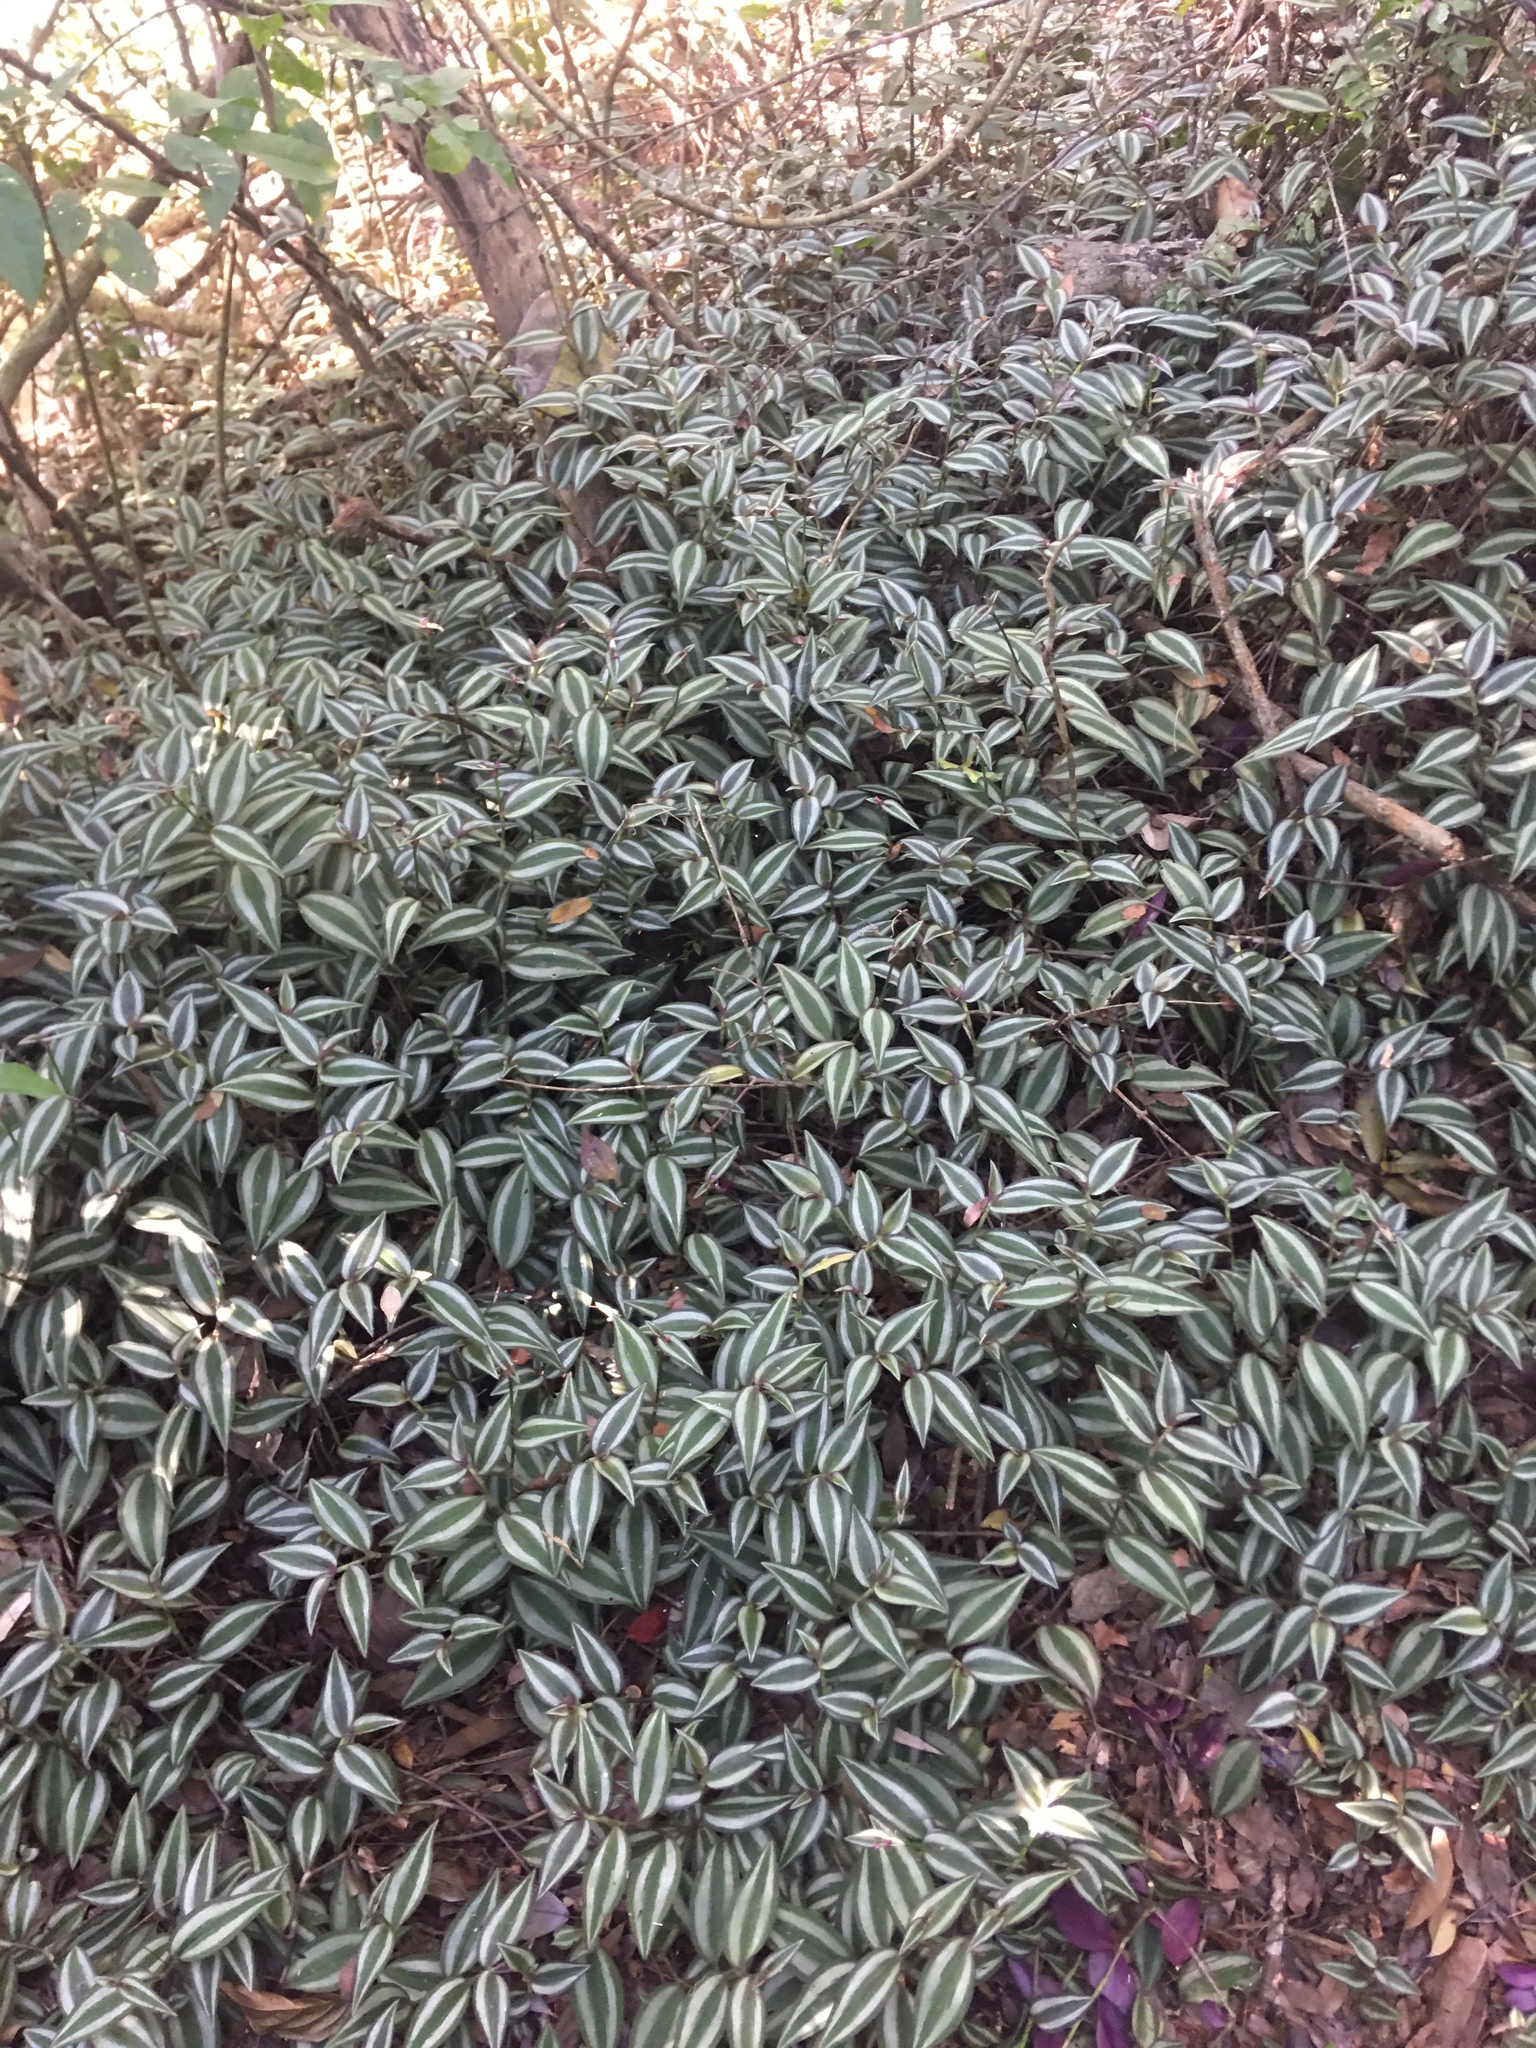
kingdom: Plantae
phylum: Tracheophyta
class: Liliopsida
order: Commelinales
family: Commelinaceae
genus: Tradescantia
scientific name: Tradescantia zebrina
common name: Inchplant
